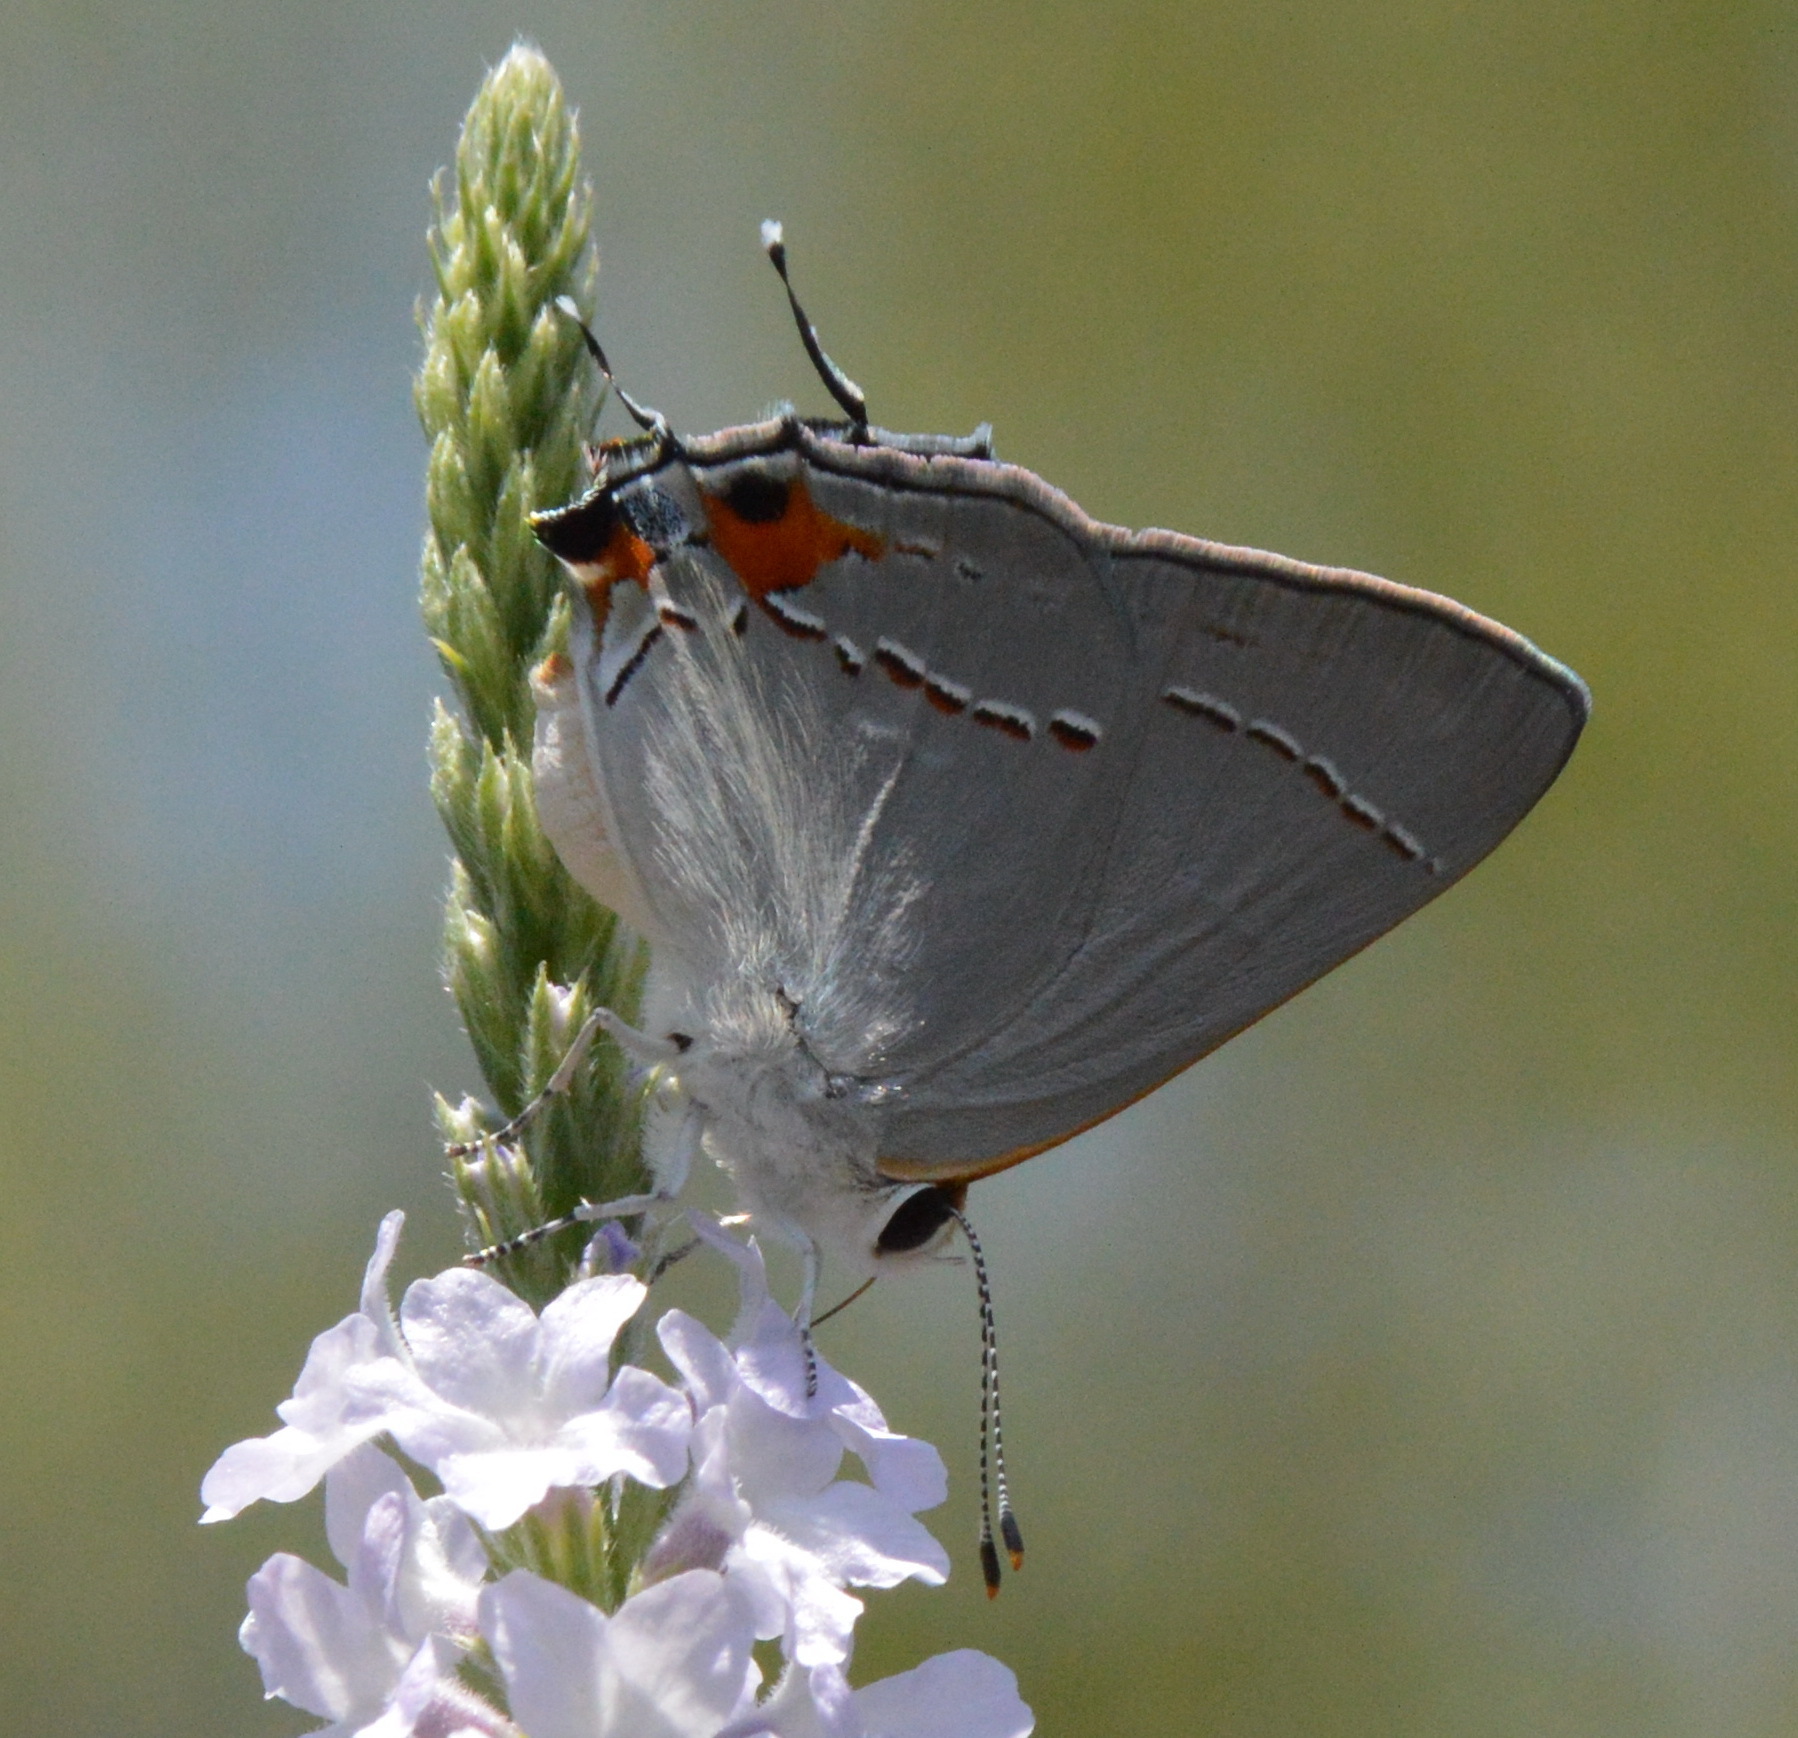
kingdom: Animalia
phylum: Arthropoda
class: Insecta
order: Lepidoptera
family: Lycaenidae
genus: Strymon
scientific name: Strymon melinus
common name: Gray hairstreak
